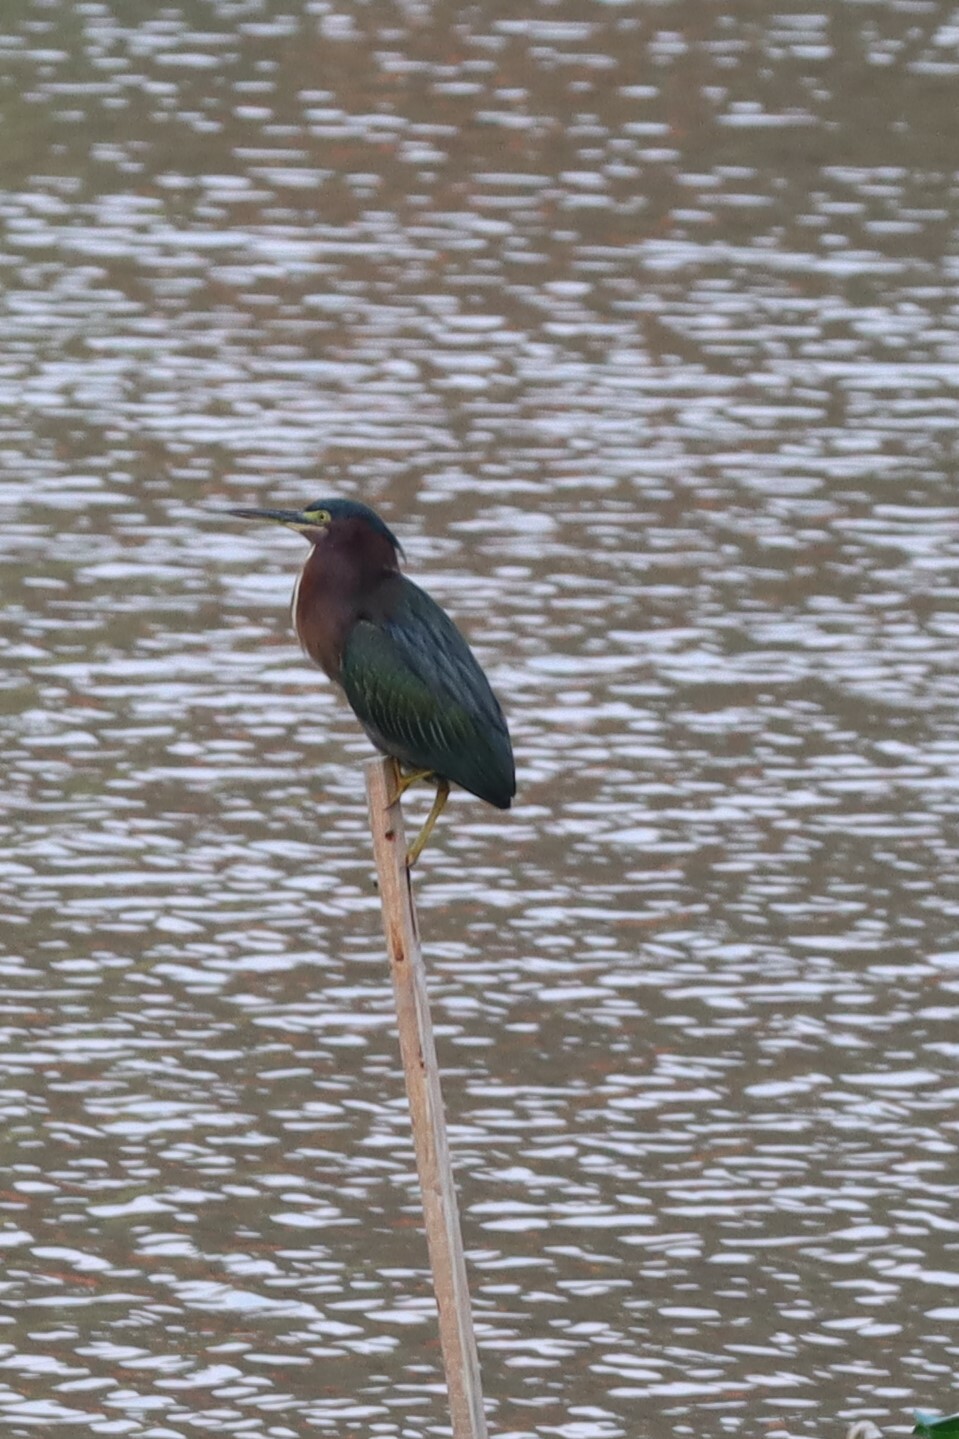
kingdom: Animalia
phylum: Chordata
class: Aves
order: Pelecaniformes
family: Ardeidae
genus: Butorides
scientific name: Butorides virescens
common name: Green heron
